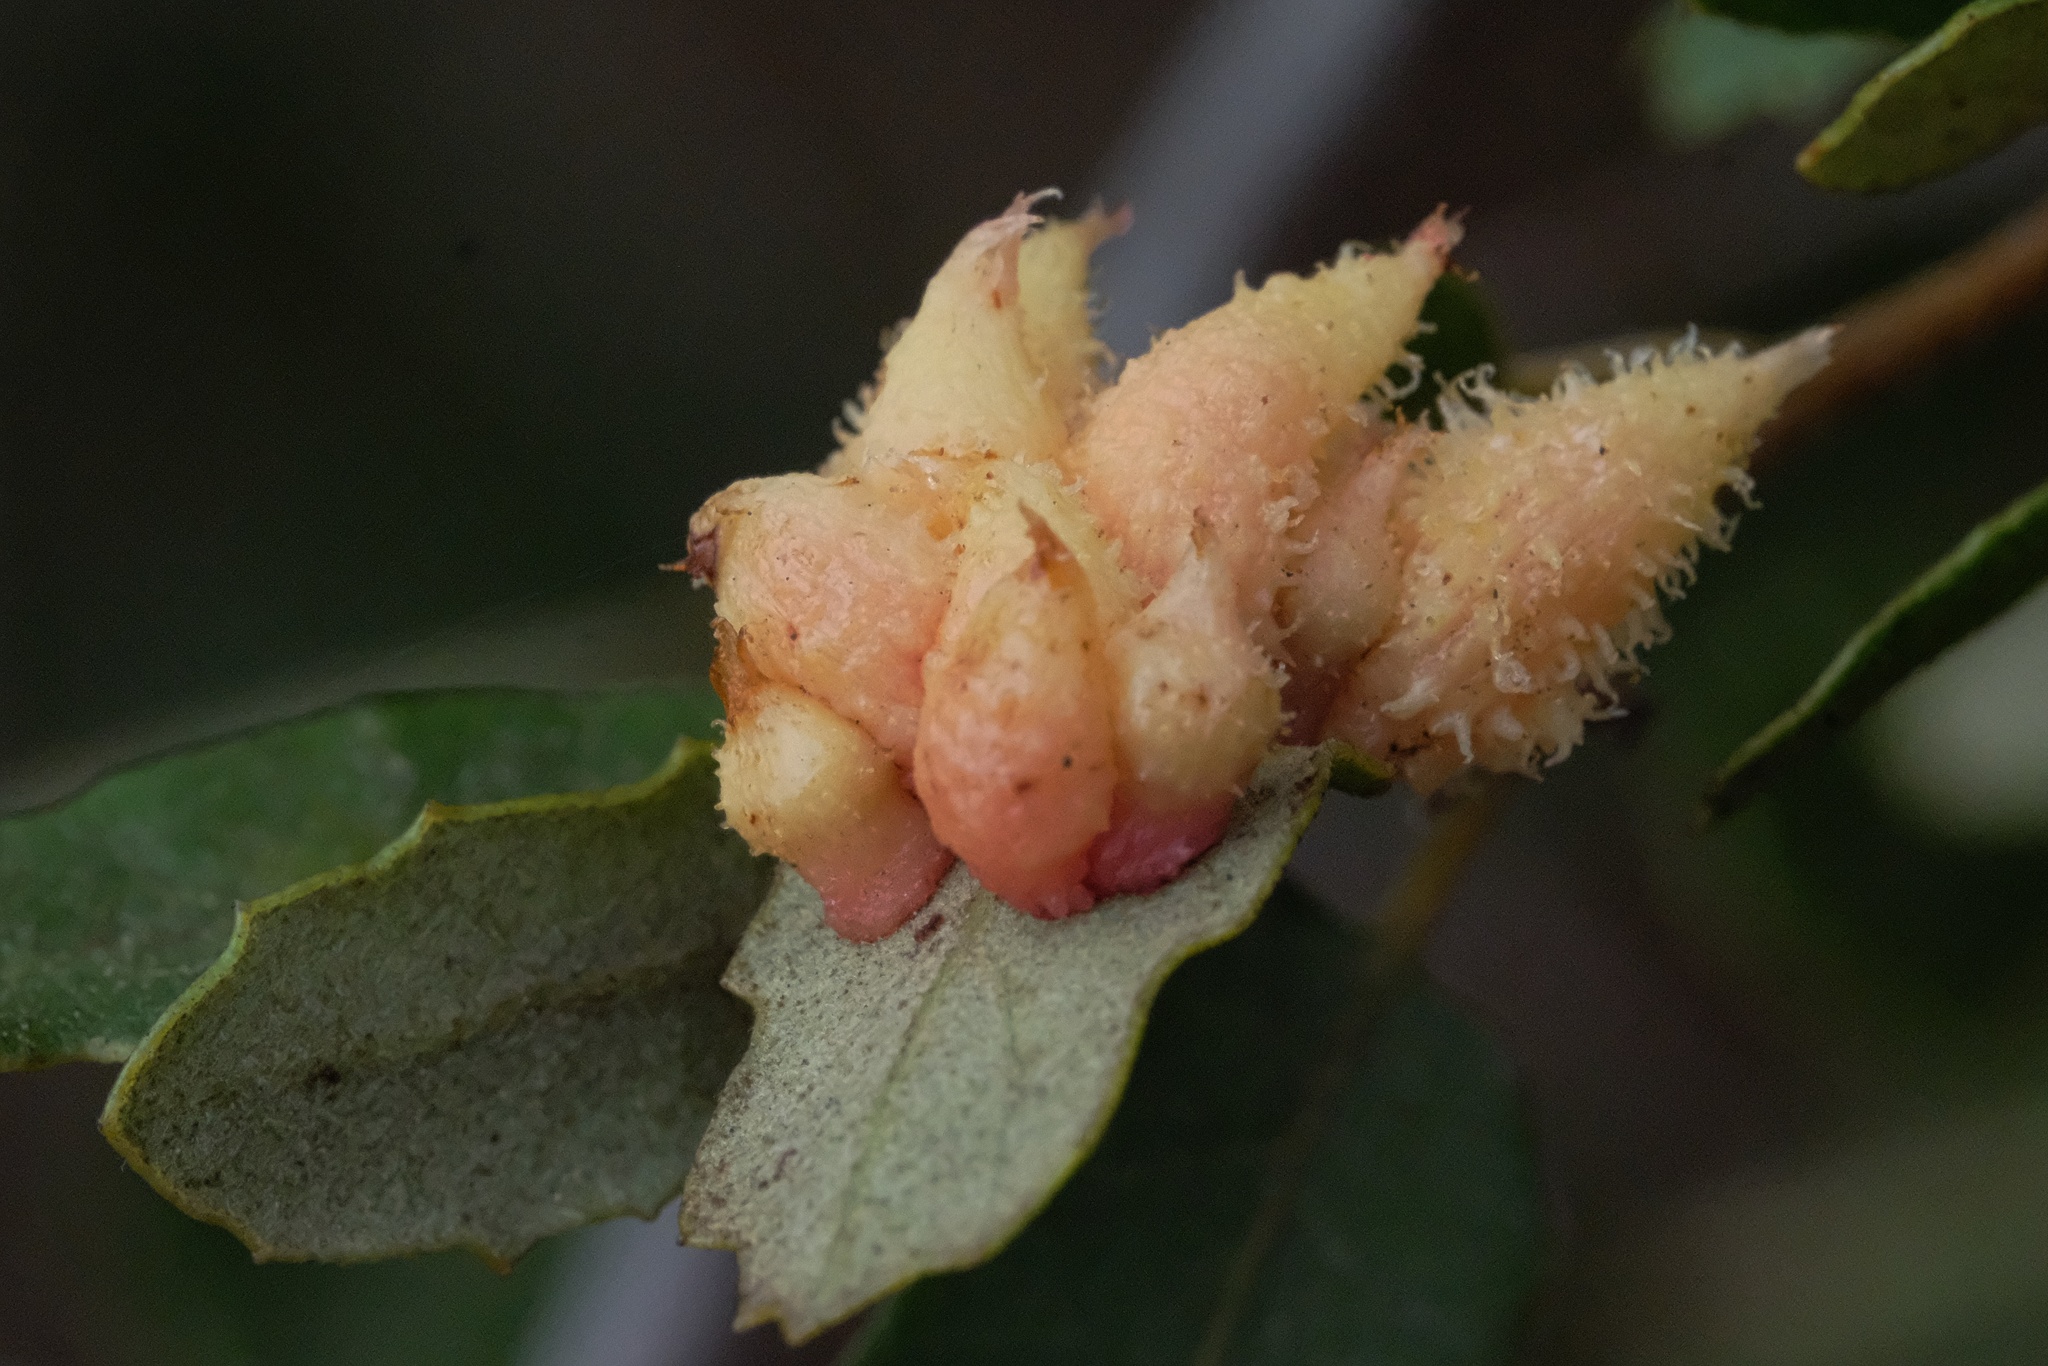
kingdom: Animalia
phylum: Arthropoda
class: Insecta
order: Hymenoptera
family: Cynipidae
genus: Andricus
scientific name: Andricus
